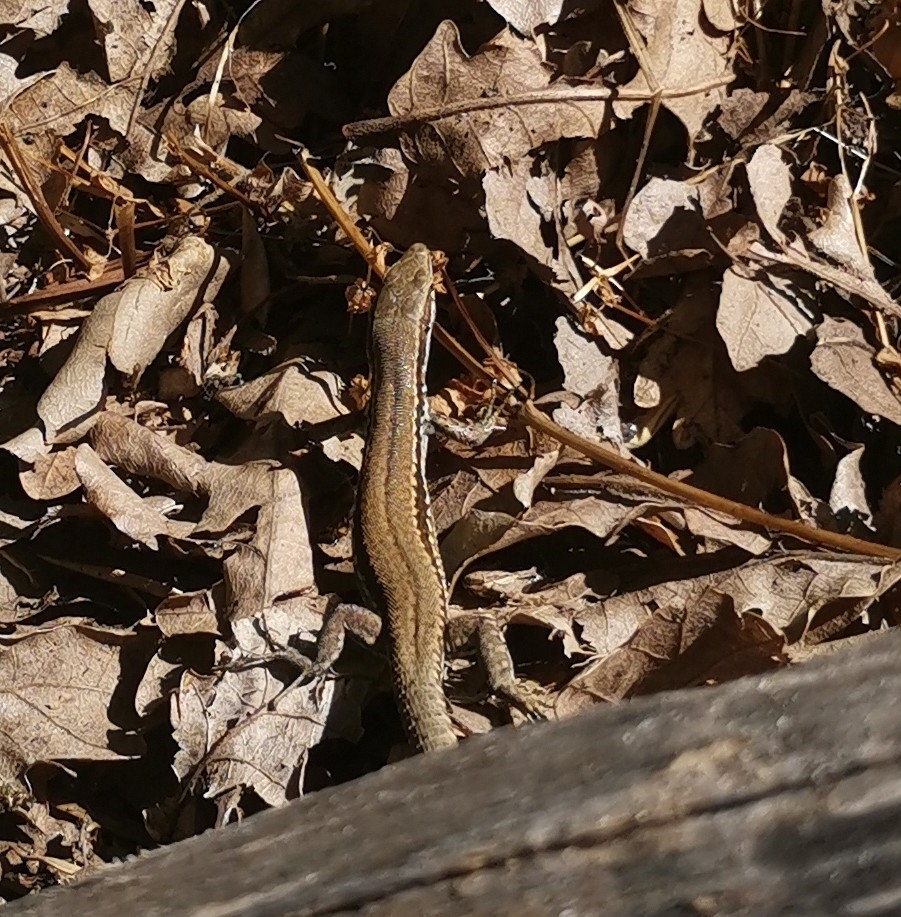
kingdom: Animalia
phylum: Chordata
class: Squamata
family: Lacertidae
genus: Podarcis
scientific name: Podarcis muralis
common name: Common wall lizard
